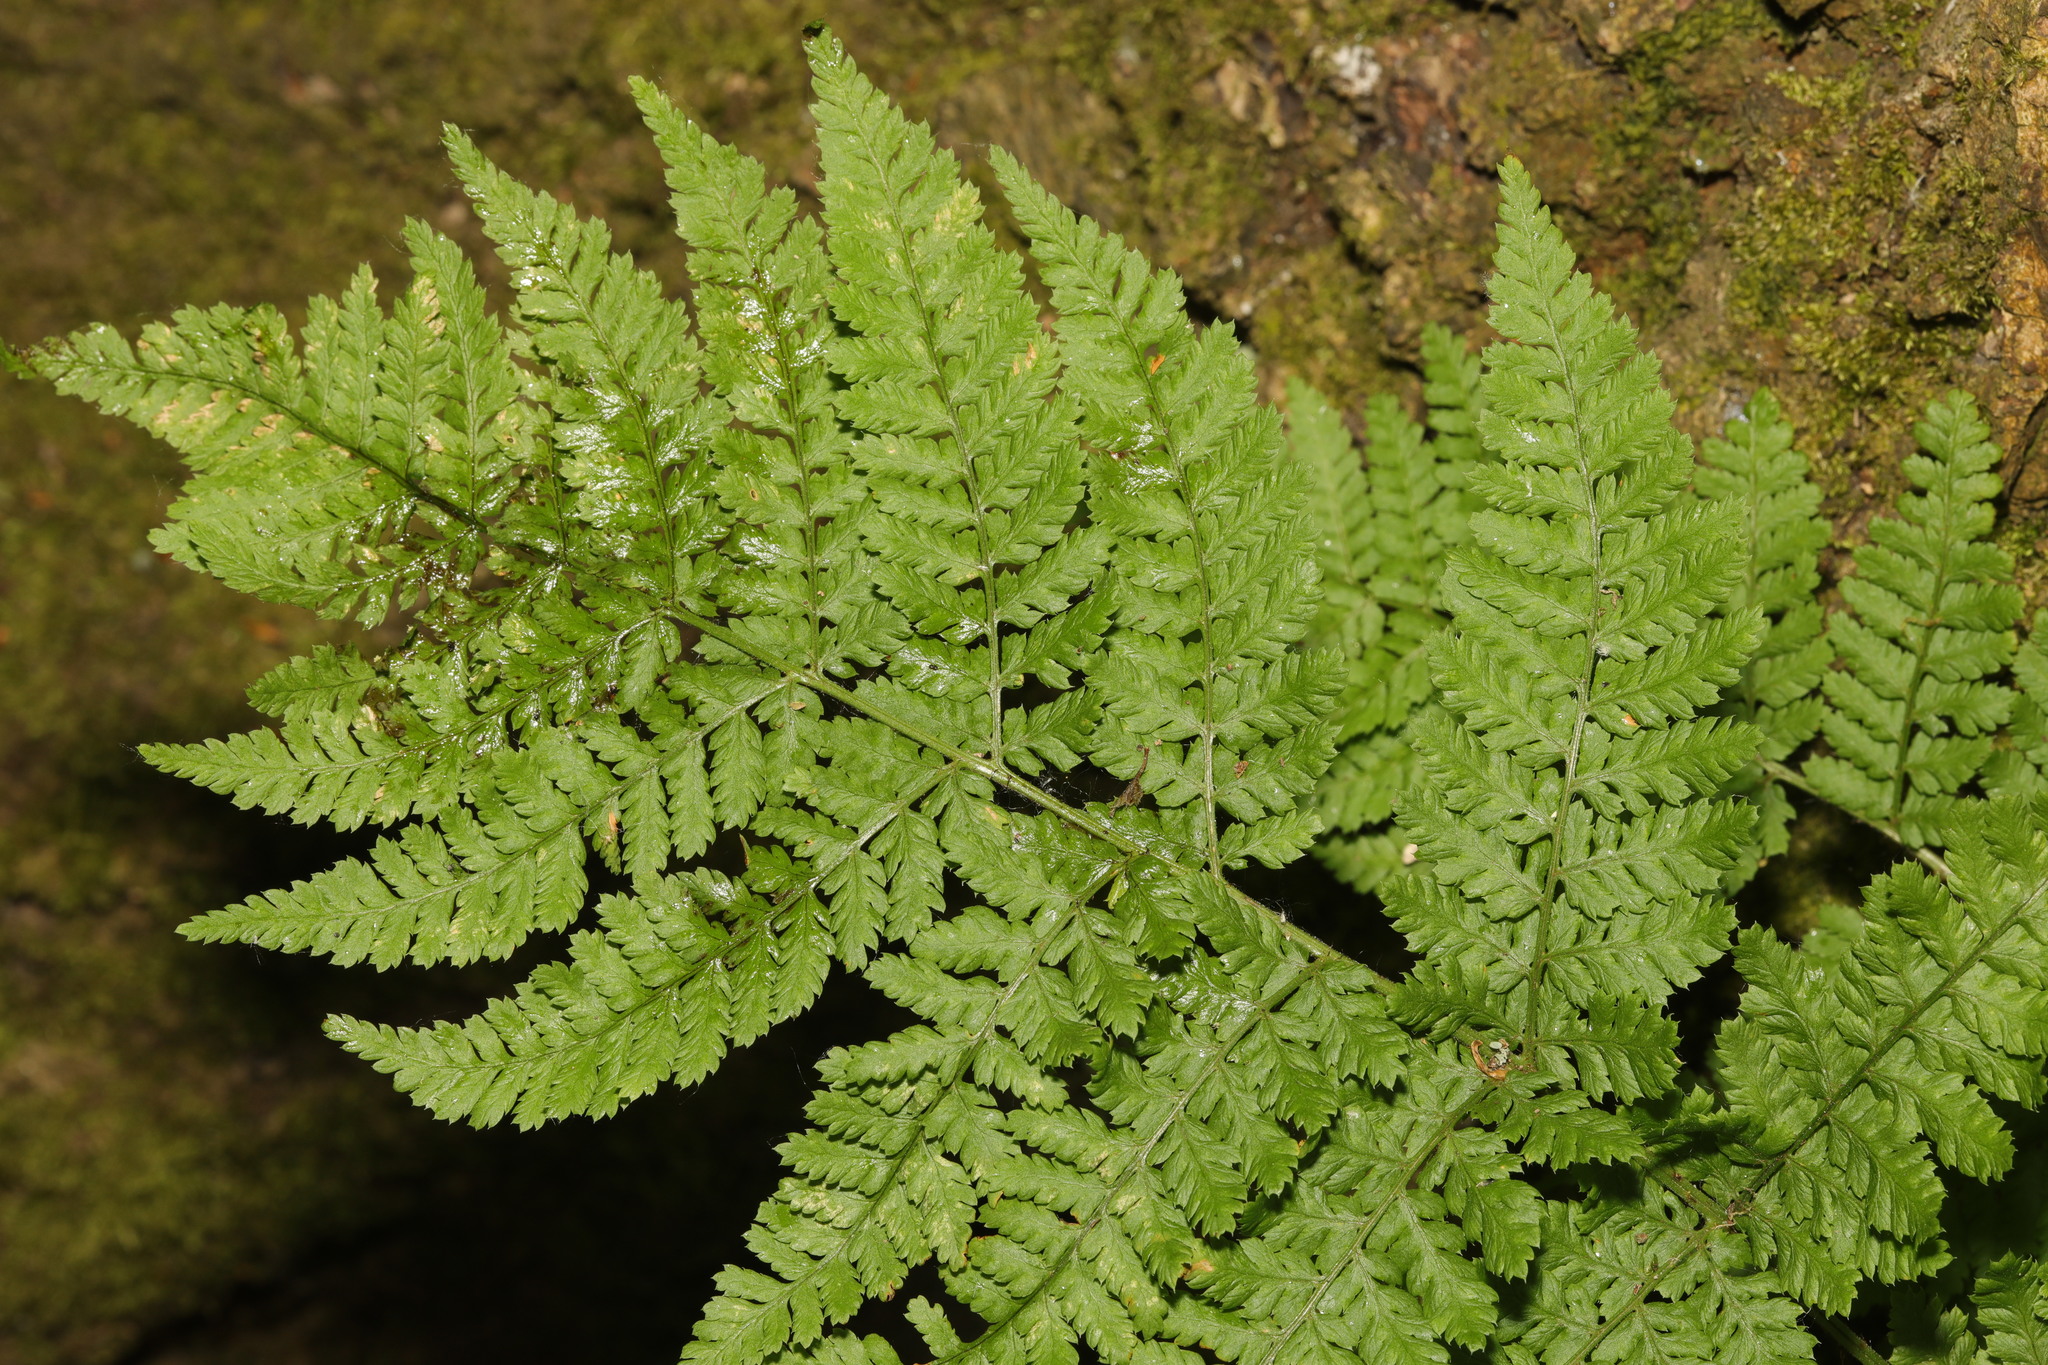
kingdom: Plantae
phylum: Tracheophyta
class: Polypodiopsida
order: Polypodiales
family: Dryopteridaceae
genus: Dryopteris
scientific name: Dryopteris dilatata
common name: Broad buckler-fern
